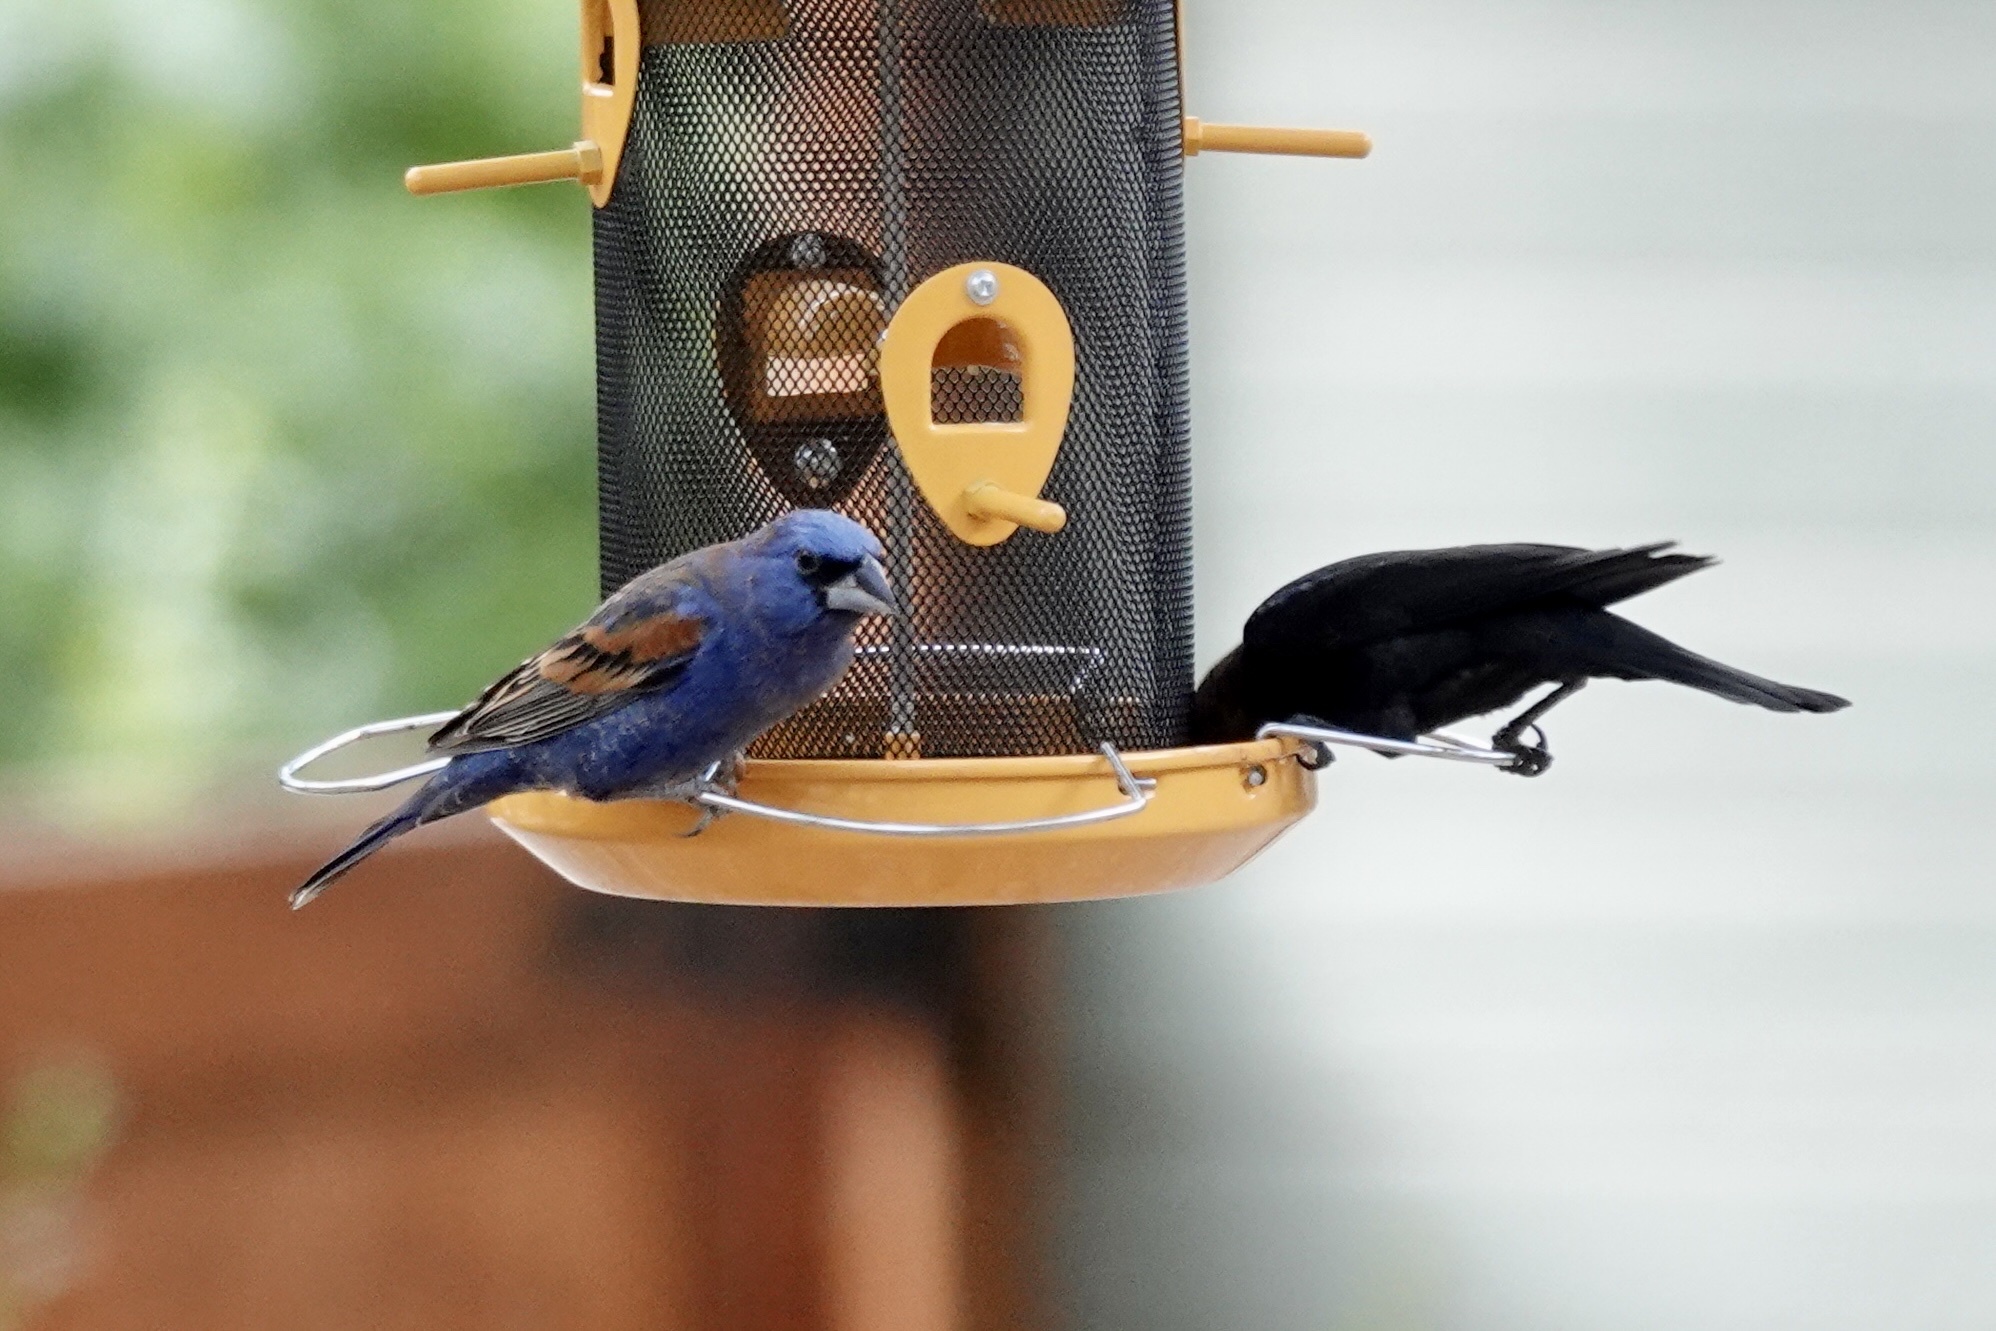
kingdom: Animalia
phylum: Chordata
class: Aves
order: Passeriformes
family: Cardinalidae
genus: Passerina
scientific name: Passerina caerulea
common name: Blue grosbeak
